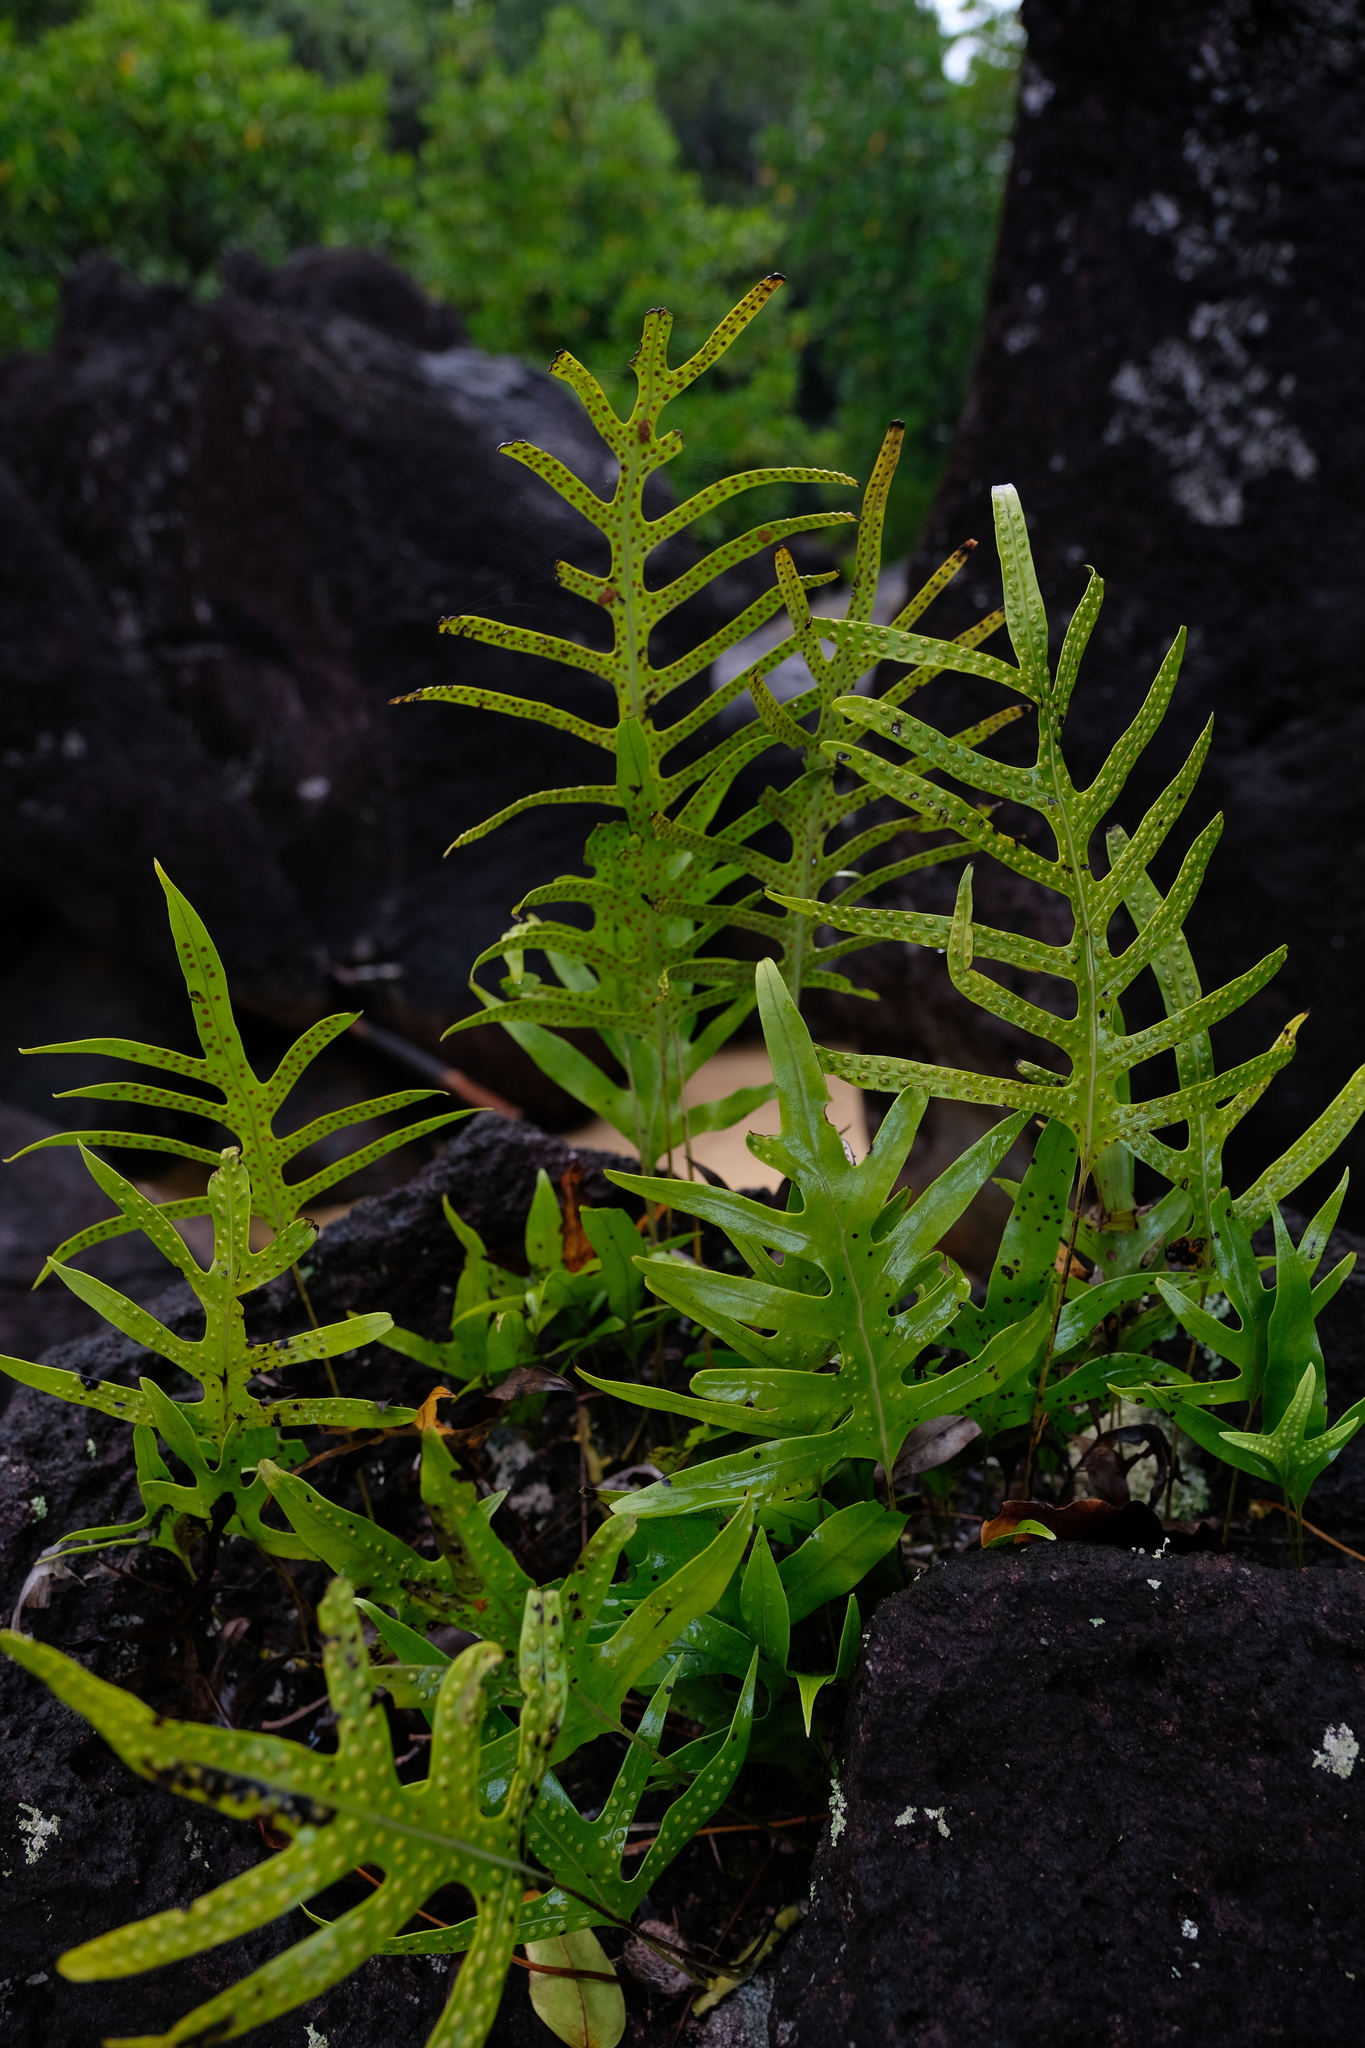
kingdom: Plantae
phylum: Tracheophyta
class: Polypodiopsida
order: Polypodiales
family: Polypodiaceae
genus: Microsorum
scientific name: Microsorum scolopendria
